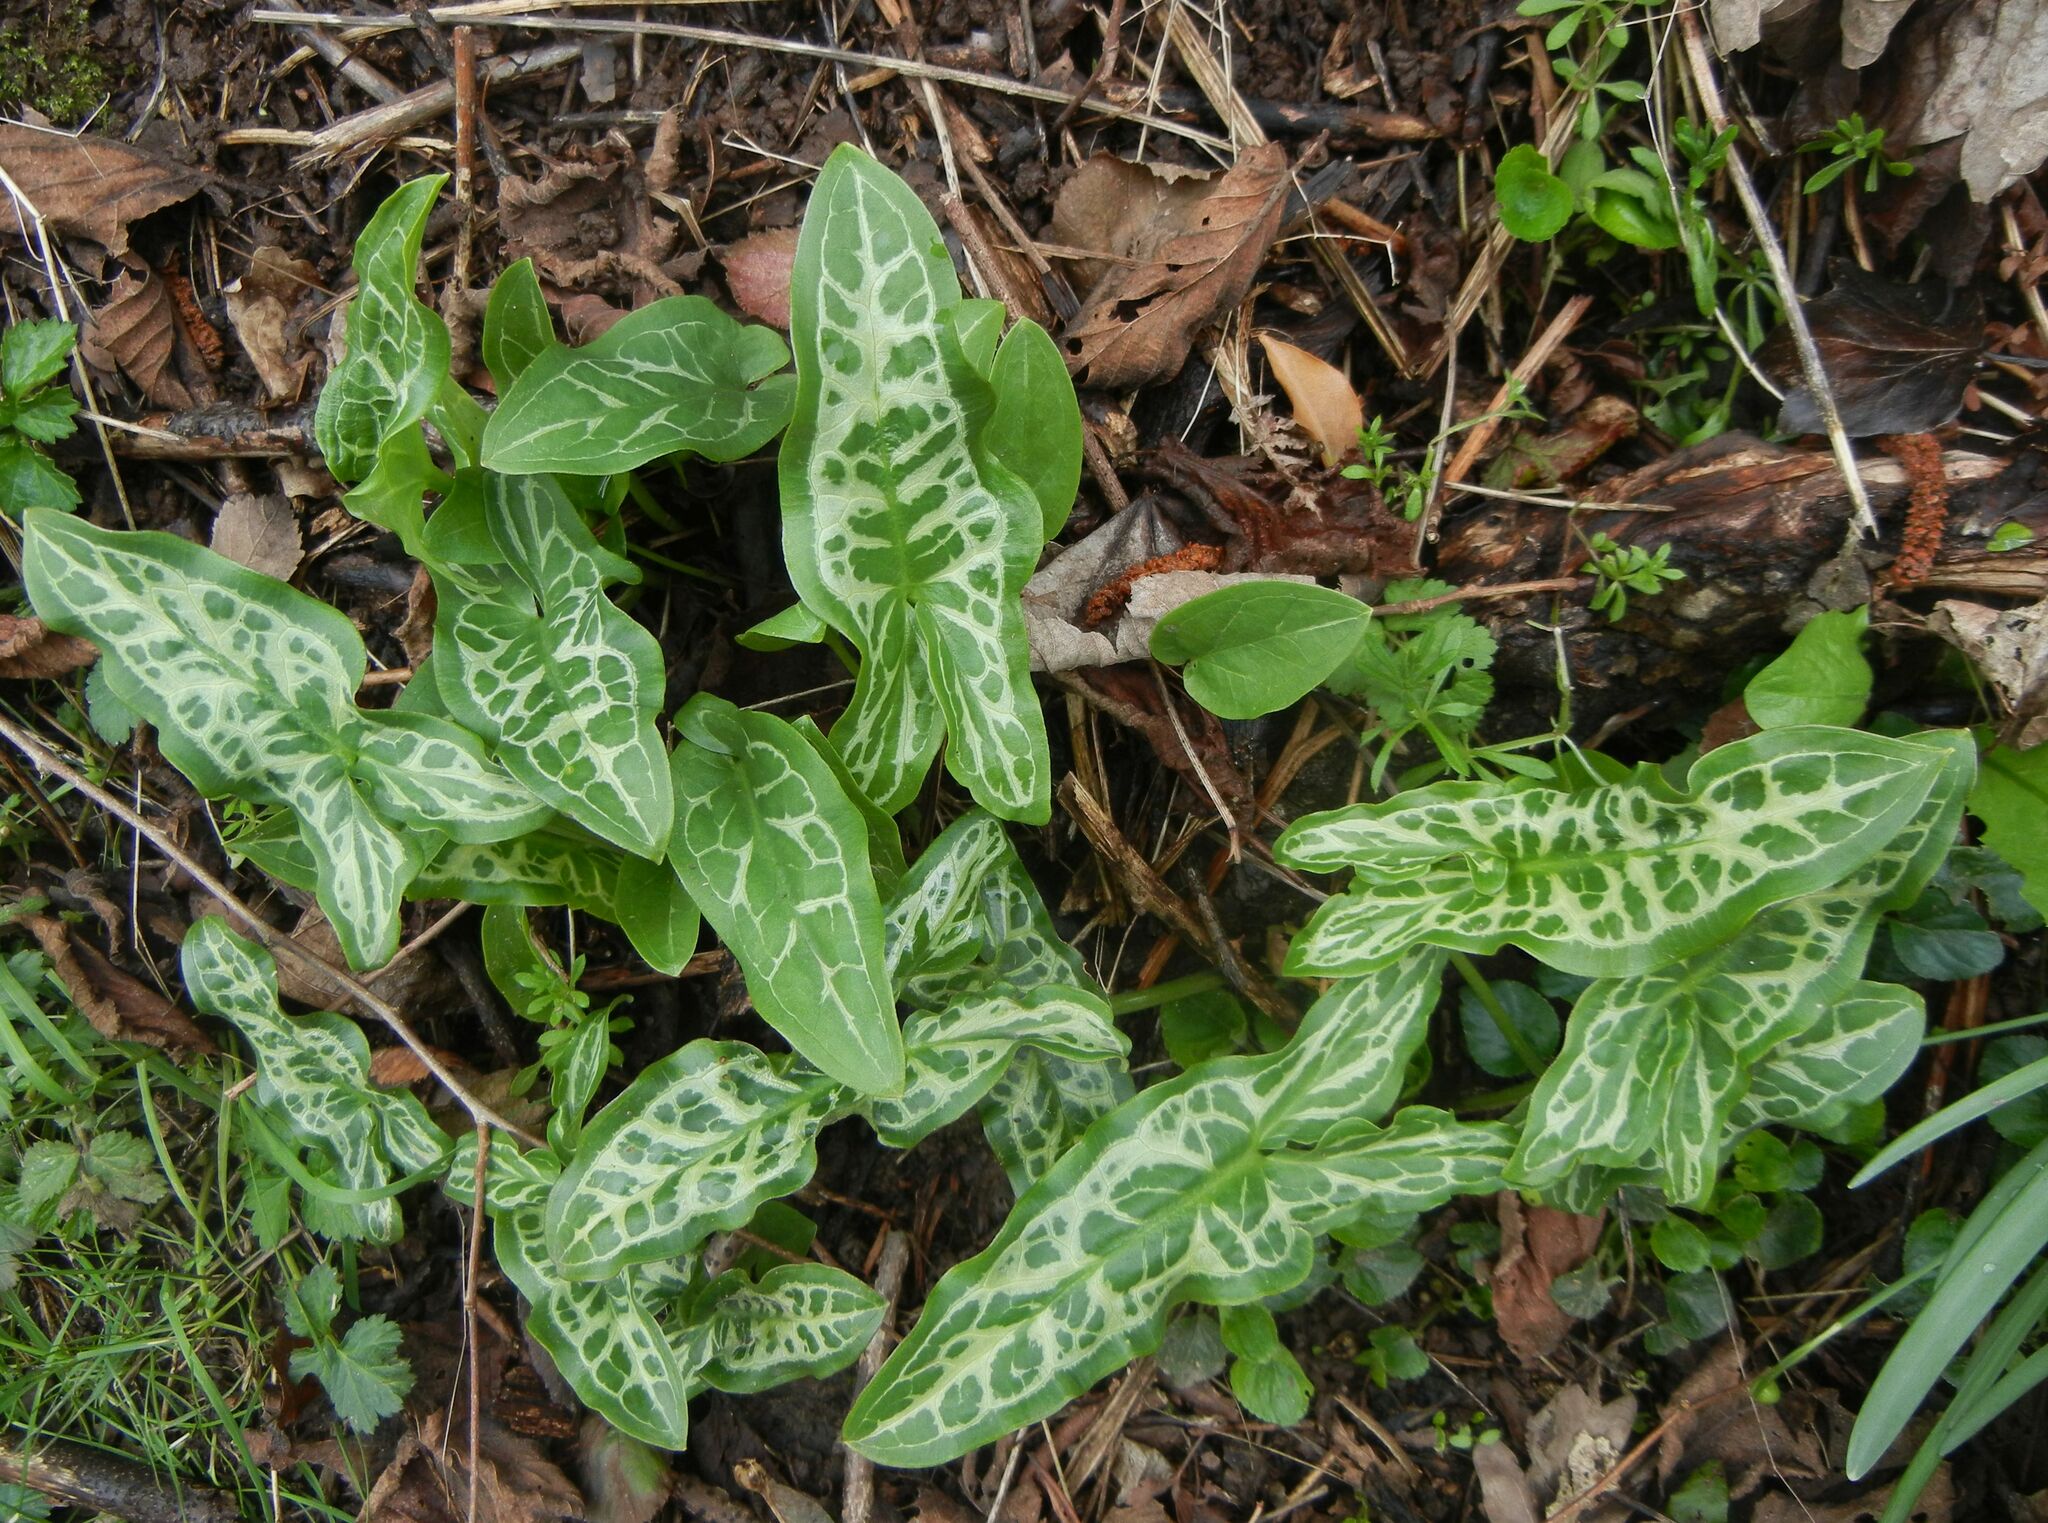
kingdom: Plantae
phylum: Tracheophyta
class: Liliopsida
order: Alismatales
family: Araceae
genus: Arum
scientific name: Arum italicum
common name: Italian lords-and-ladies
